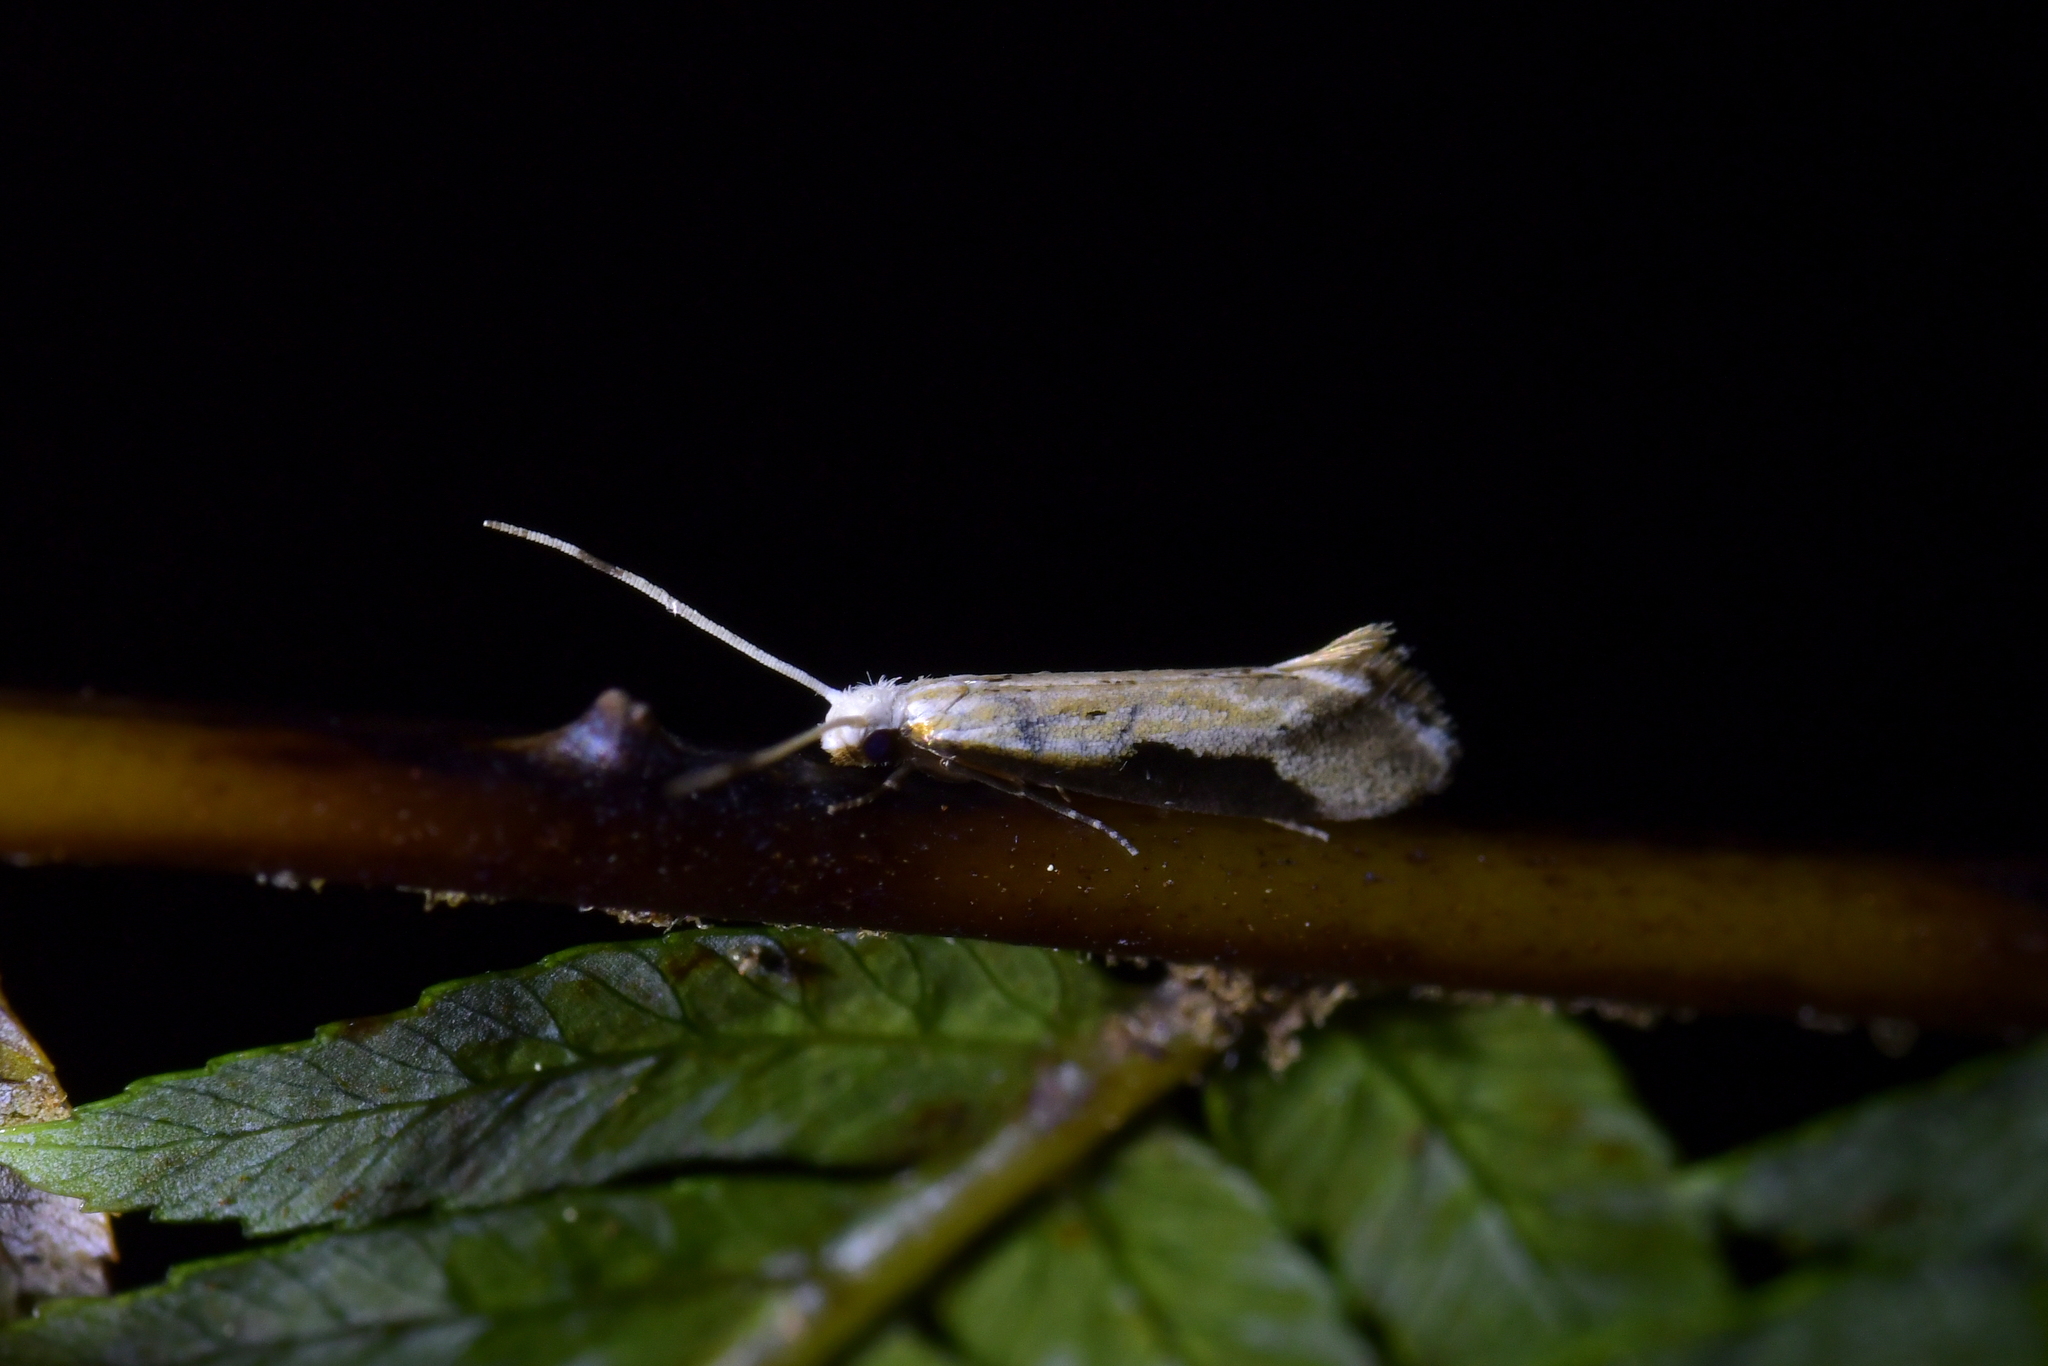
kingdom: Animalia
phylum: Arthropoda
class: Insecta
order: Lepidoptera
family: Tineidae
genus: Sagephora
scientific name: Sagephora phortegella
